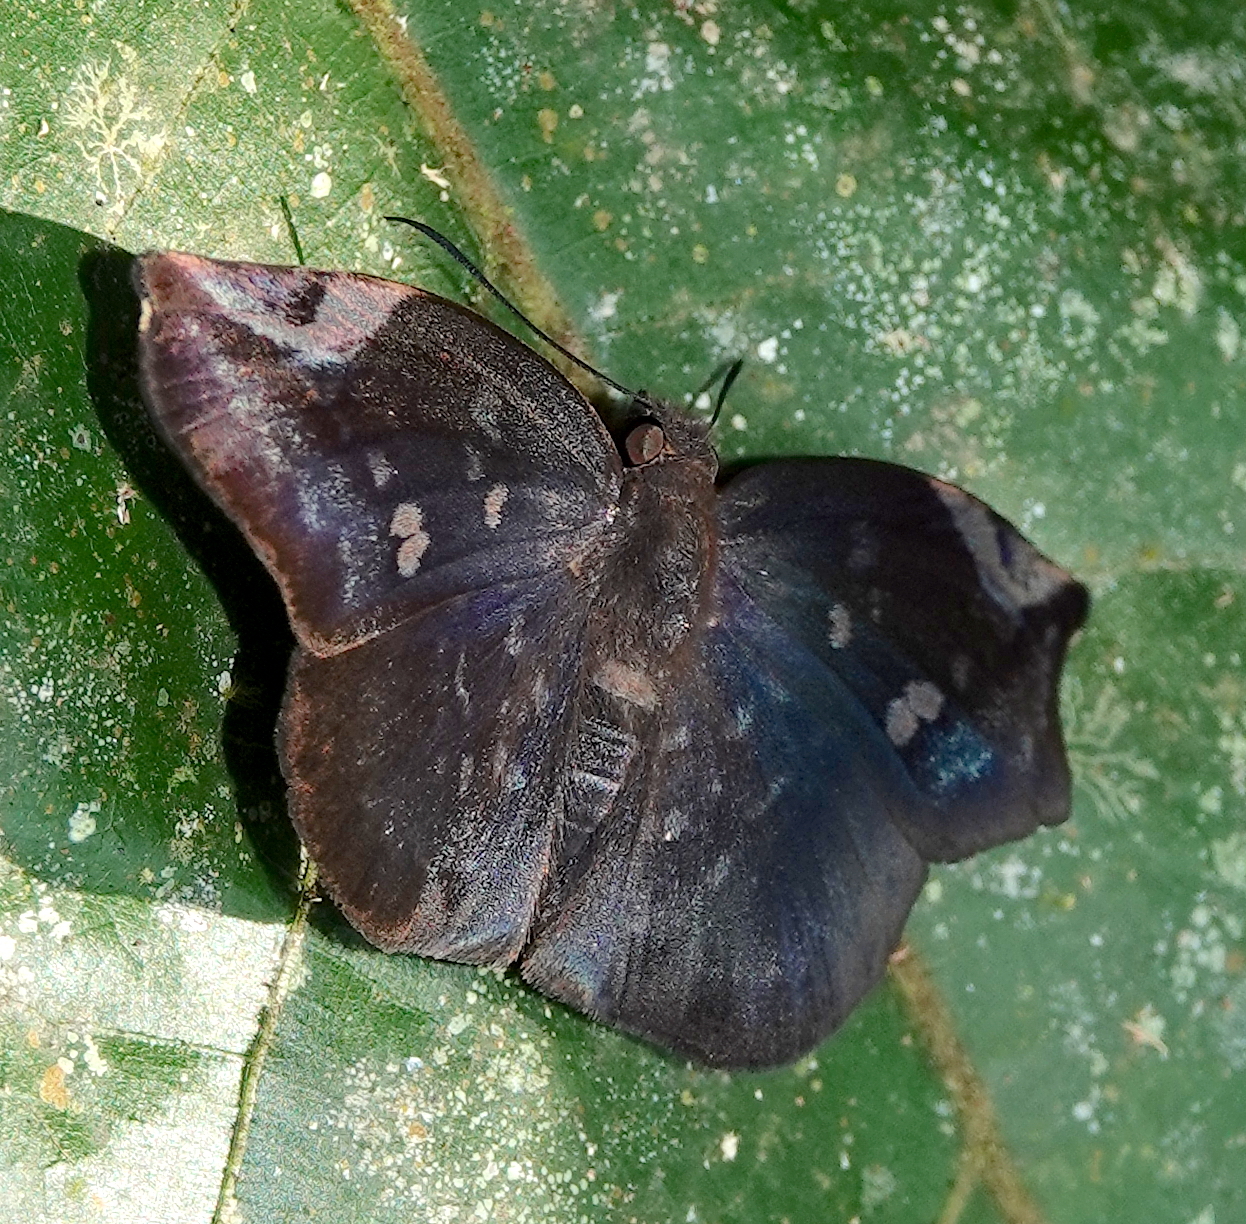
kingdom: Animalia
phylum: Arthropoda
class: Insecta
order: Lepidoptera
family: Hesperiidae
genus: Achlyodes
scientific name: Achlyodes thraso
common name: Sickle-winged skipper
